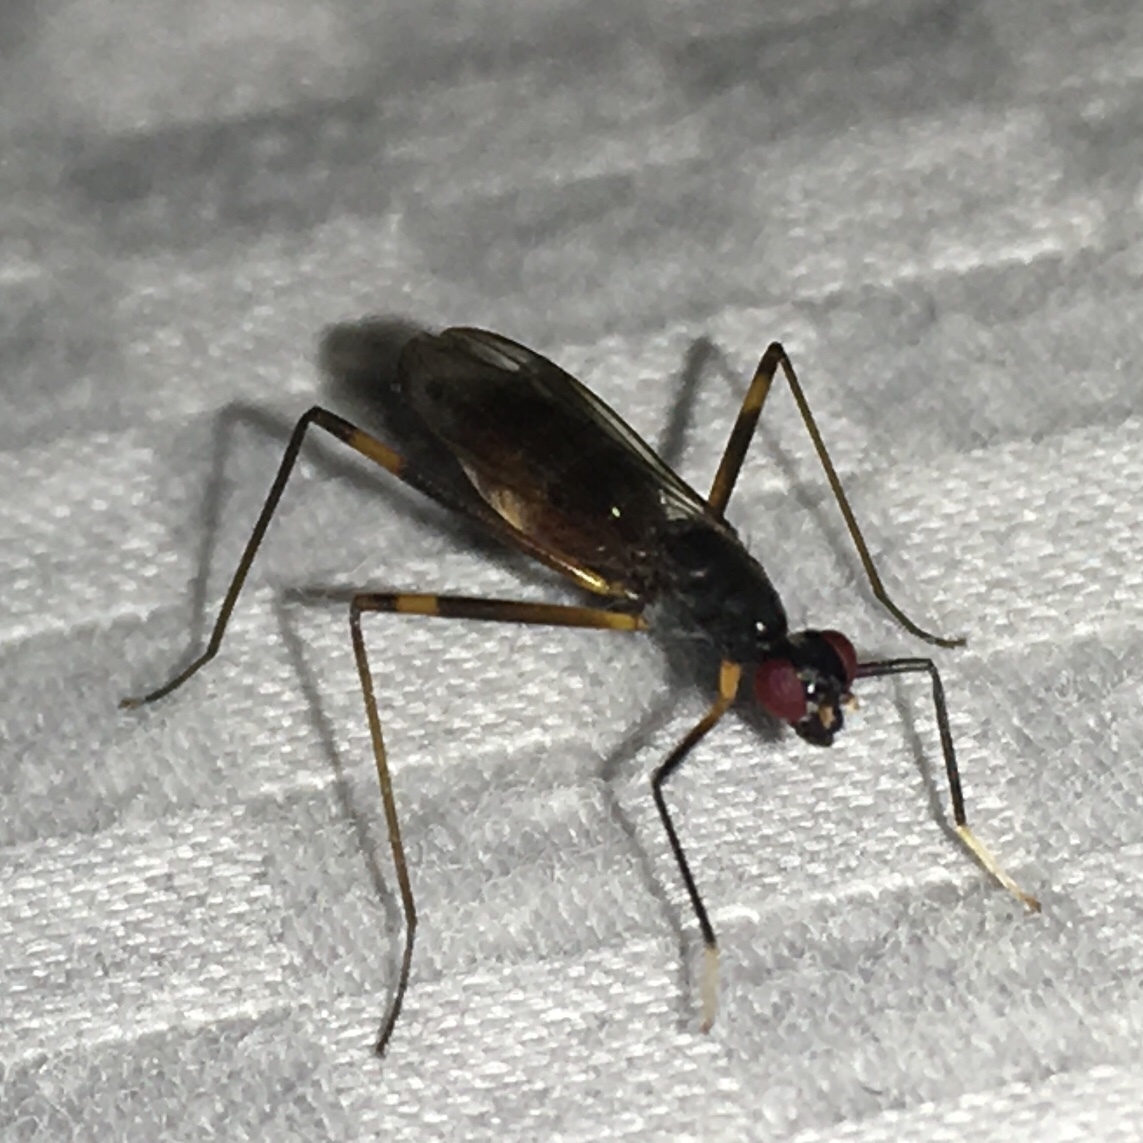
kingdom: Animalia
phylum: Arthropoda
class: Insecta
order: Diptera
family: Micropezidae
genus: Rainieria
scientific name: Rainieria antennaepes
